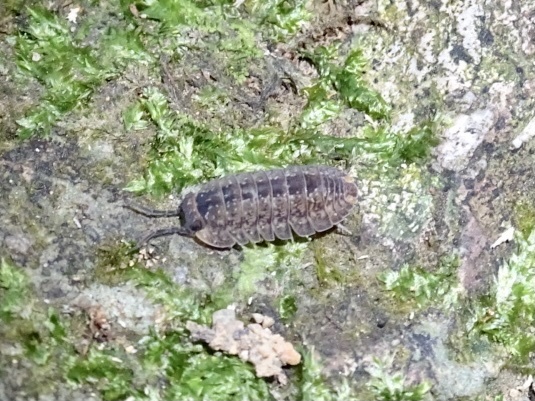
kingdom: Animalia
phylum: Arthropoda
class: Malacostraca
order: Isopoda
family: Armadillidae
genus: Dryadillo
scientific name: Dryadillo maculatus
